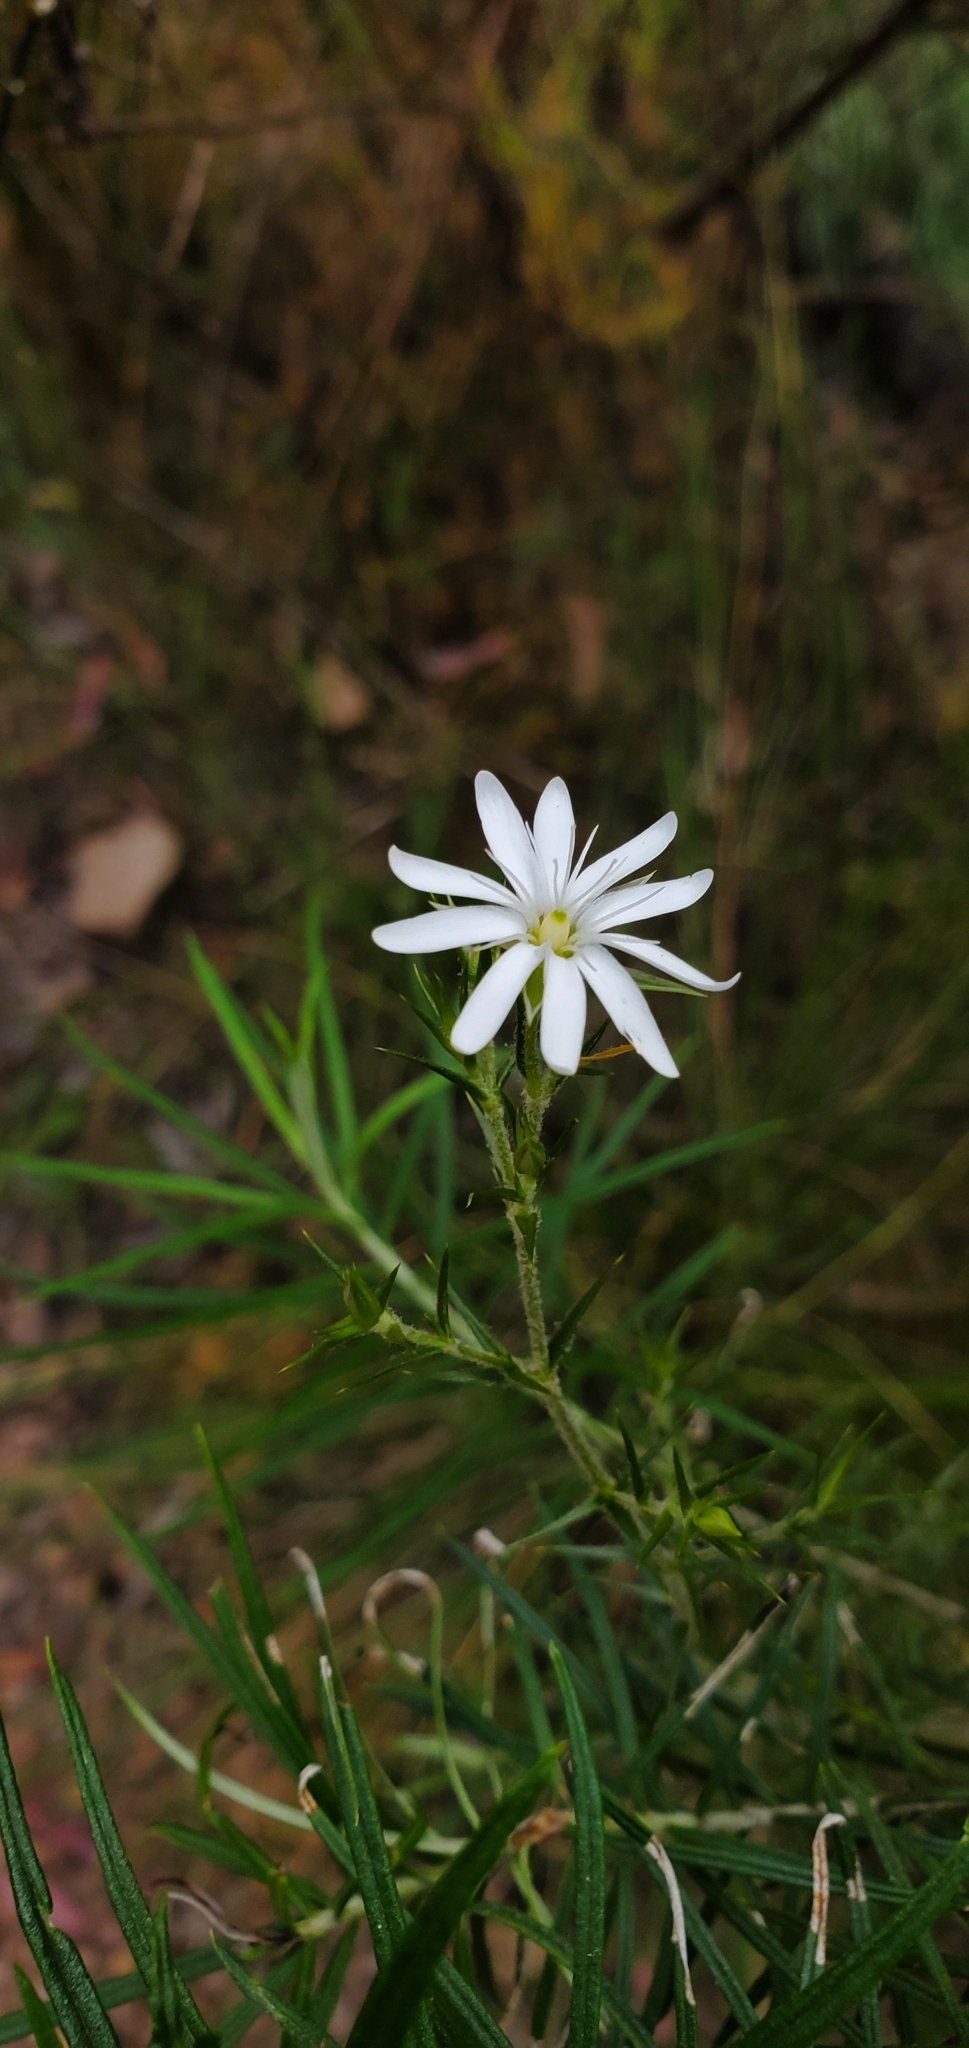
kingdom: Plantae
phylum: Tracheophyta
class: Magnoliopsida
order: Caryophyllales
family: Caryophyllaceae
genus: Stellaria
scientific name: Stellaria pungens
